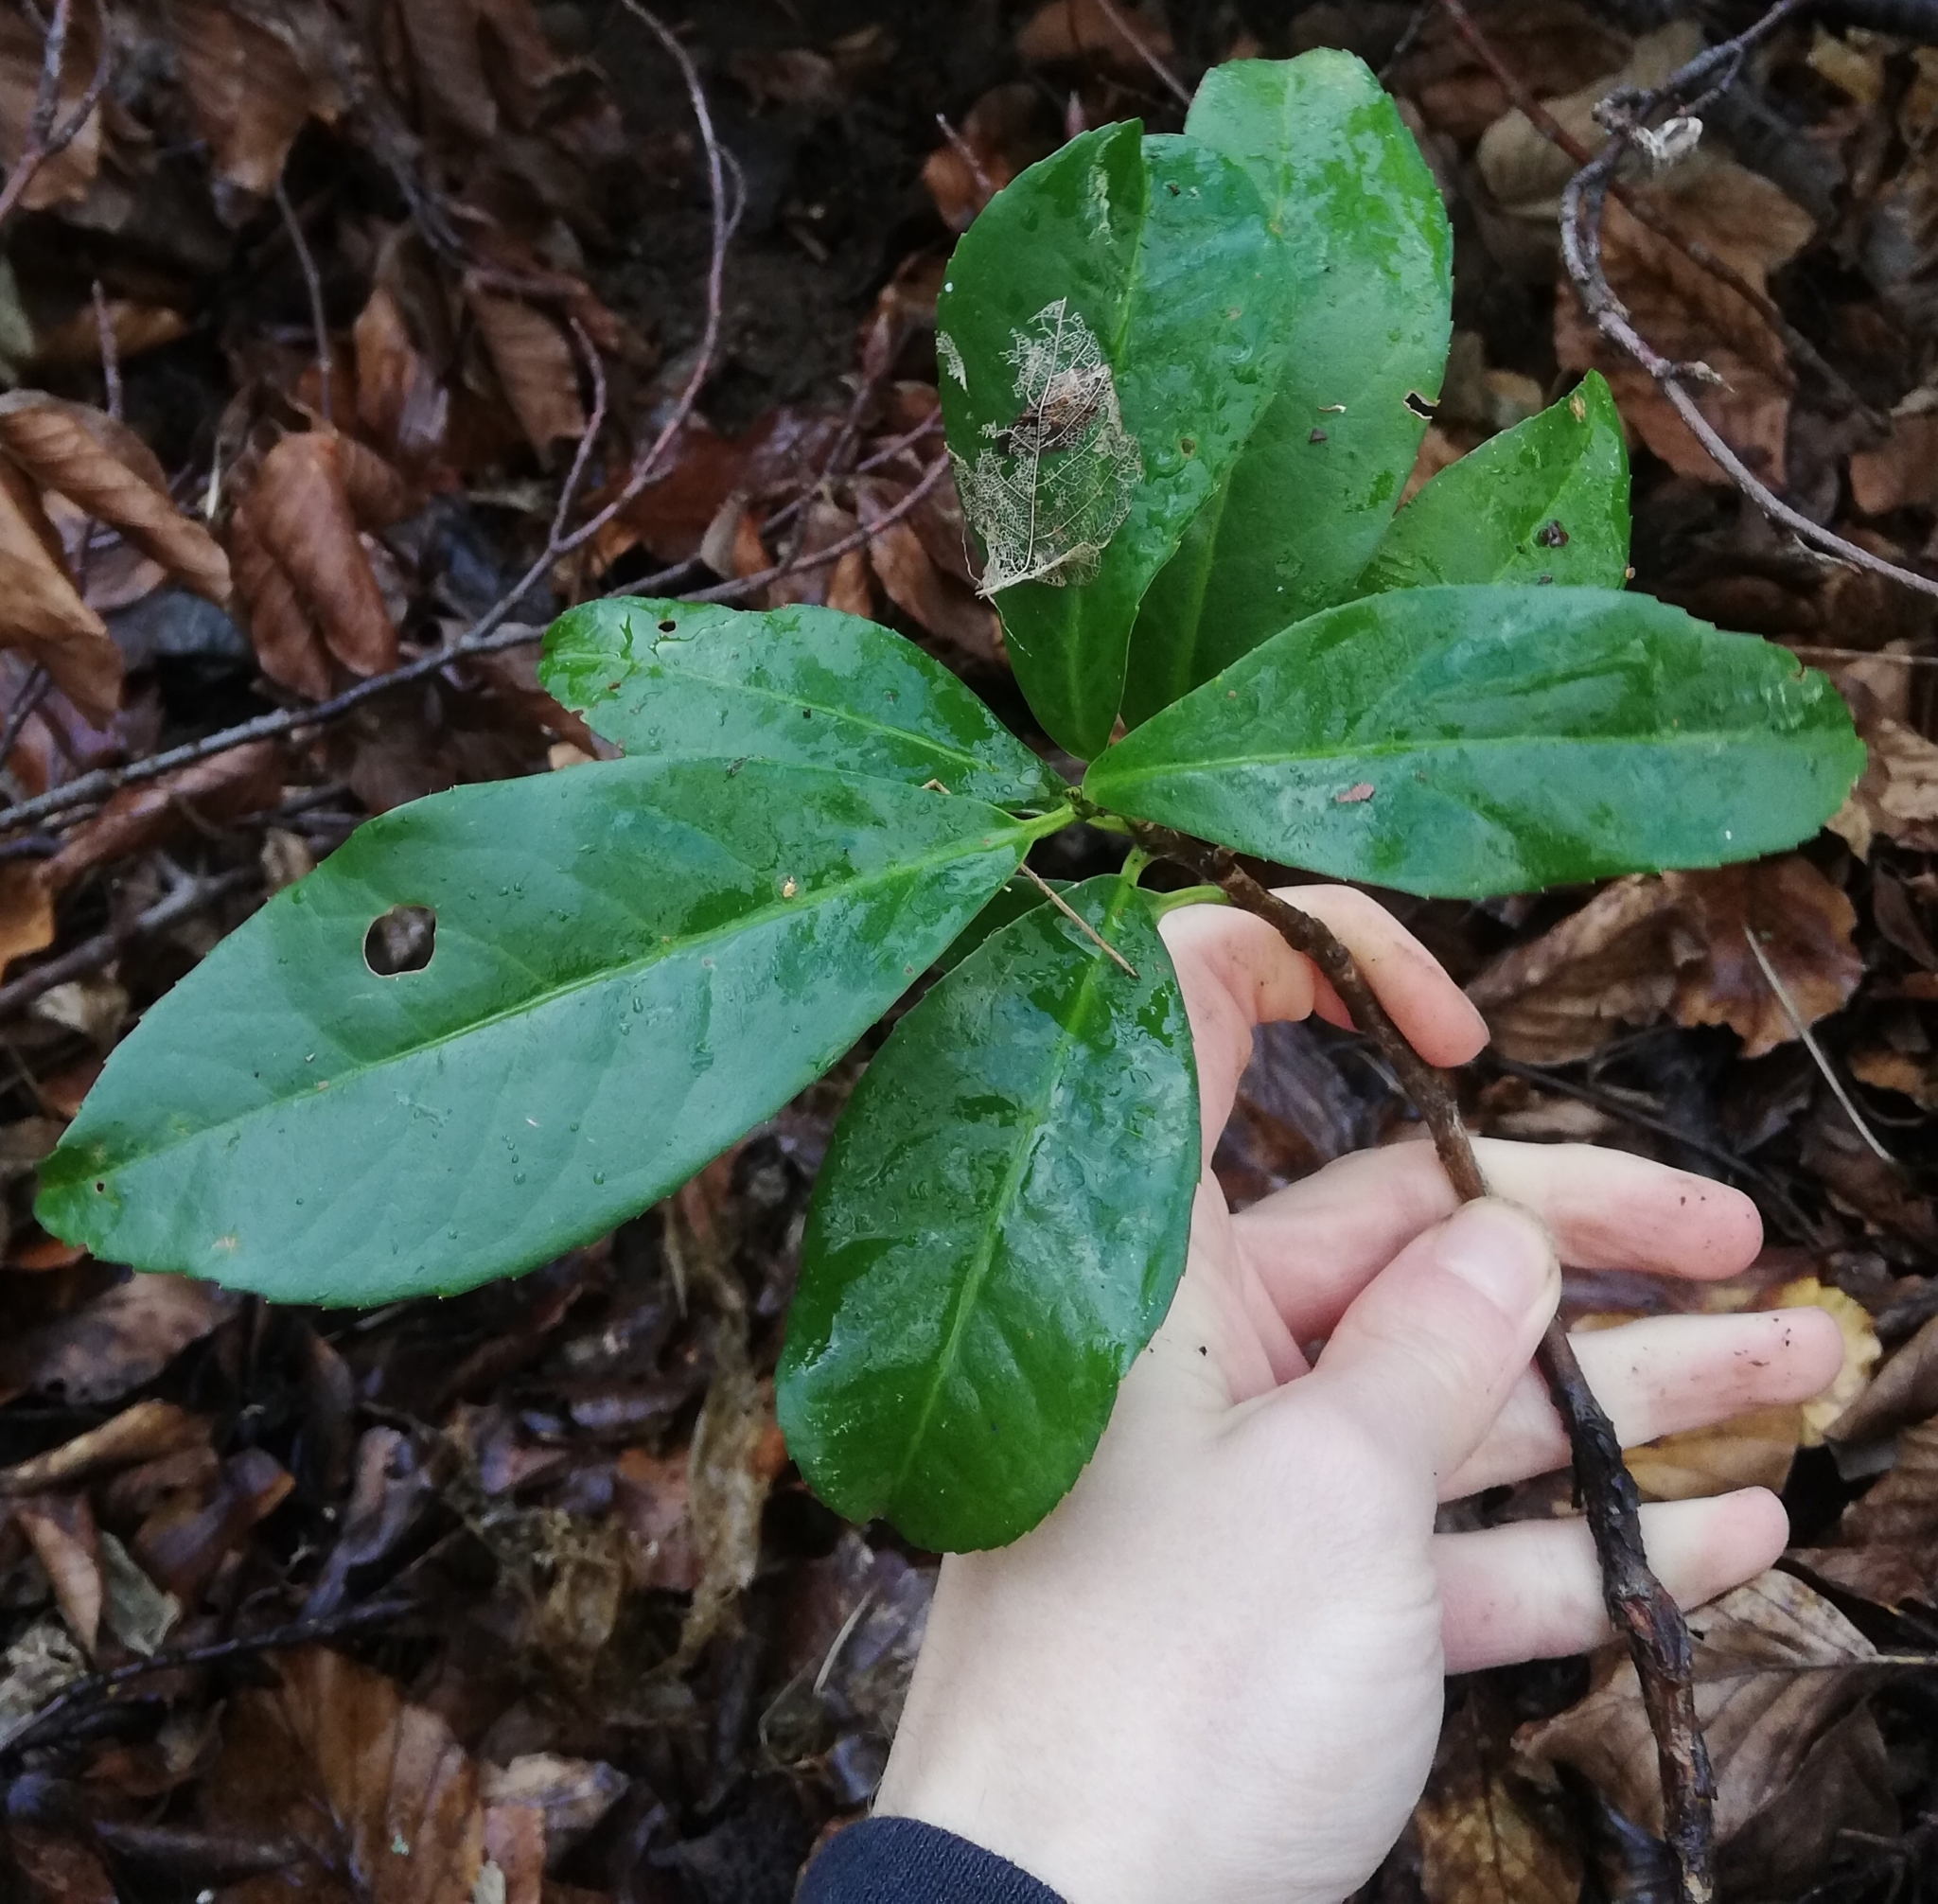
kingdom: Plantae
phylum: Tracheophyta
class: Magnoliopsida
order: Rosales
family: Rosaceae
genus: Prunus
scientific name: Prunus laurocerasus
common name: Cherry laurel
